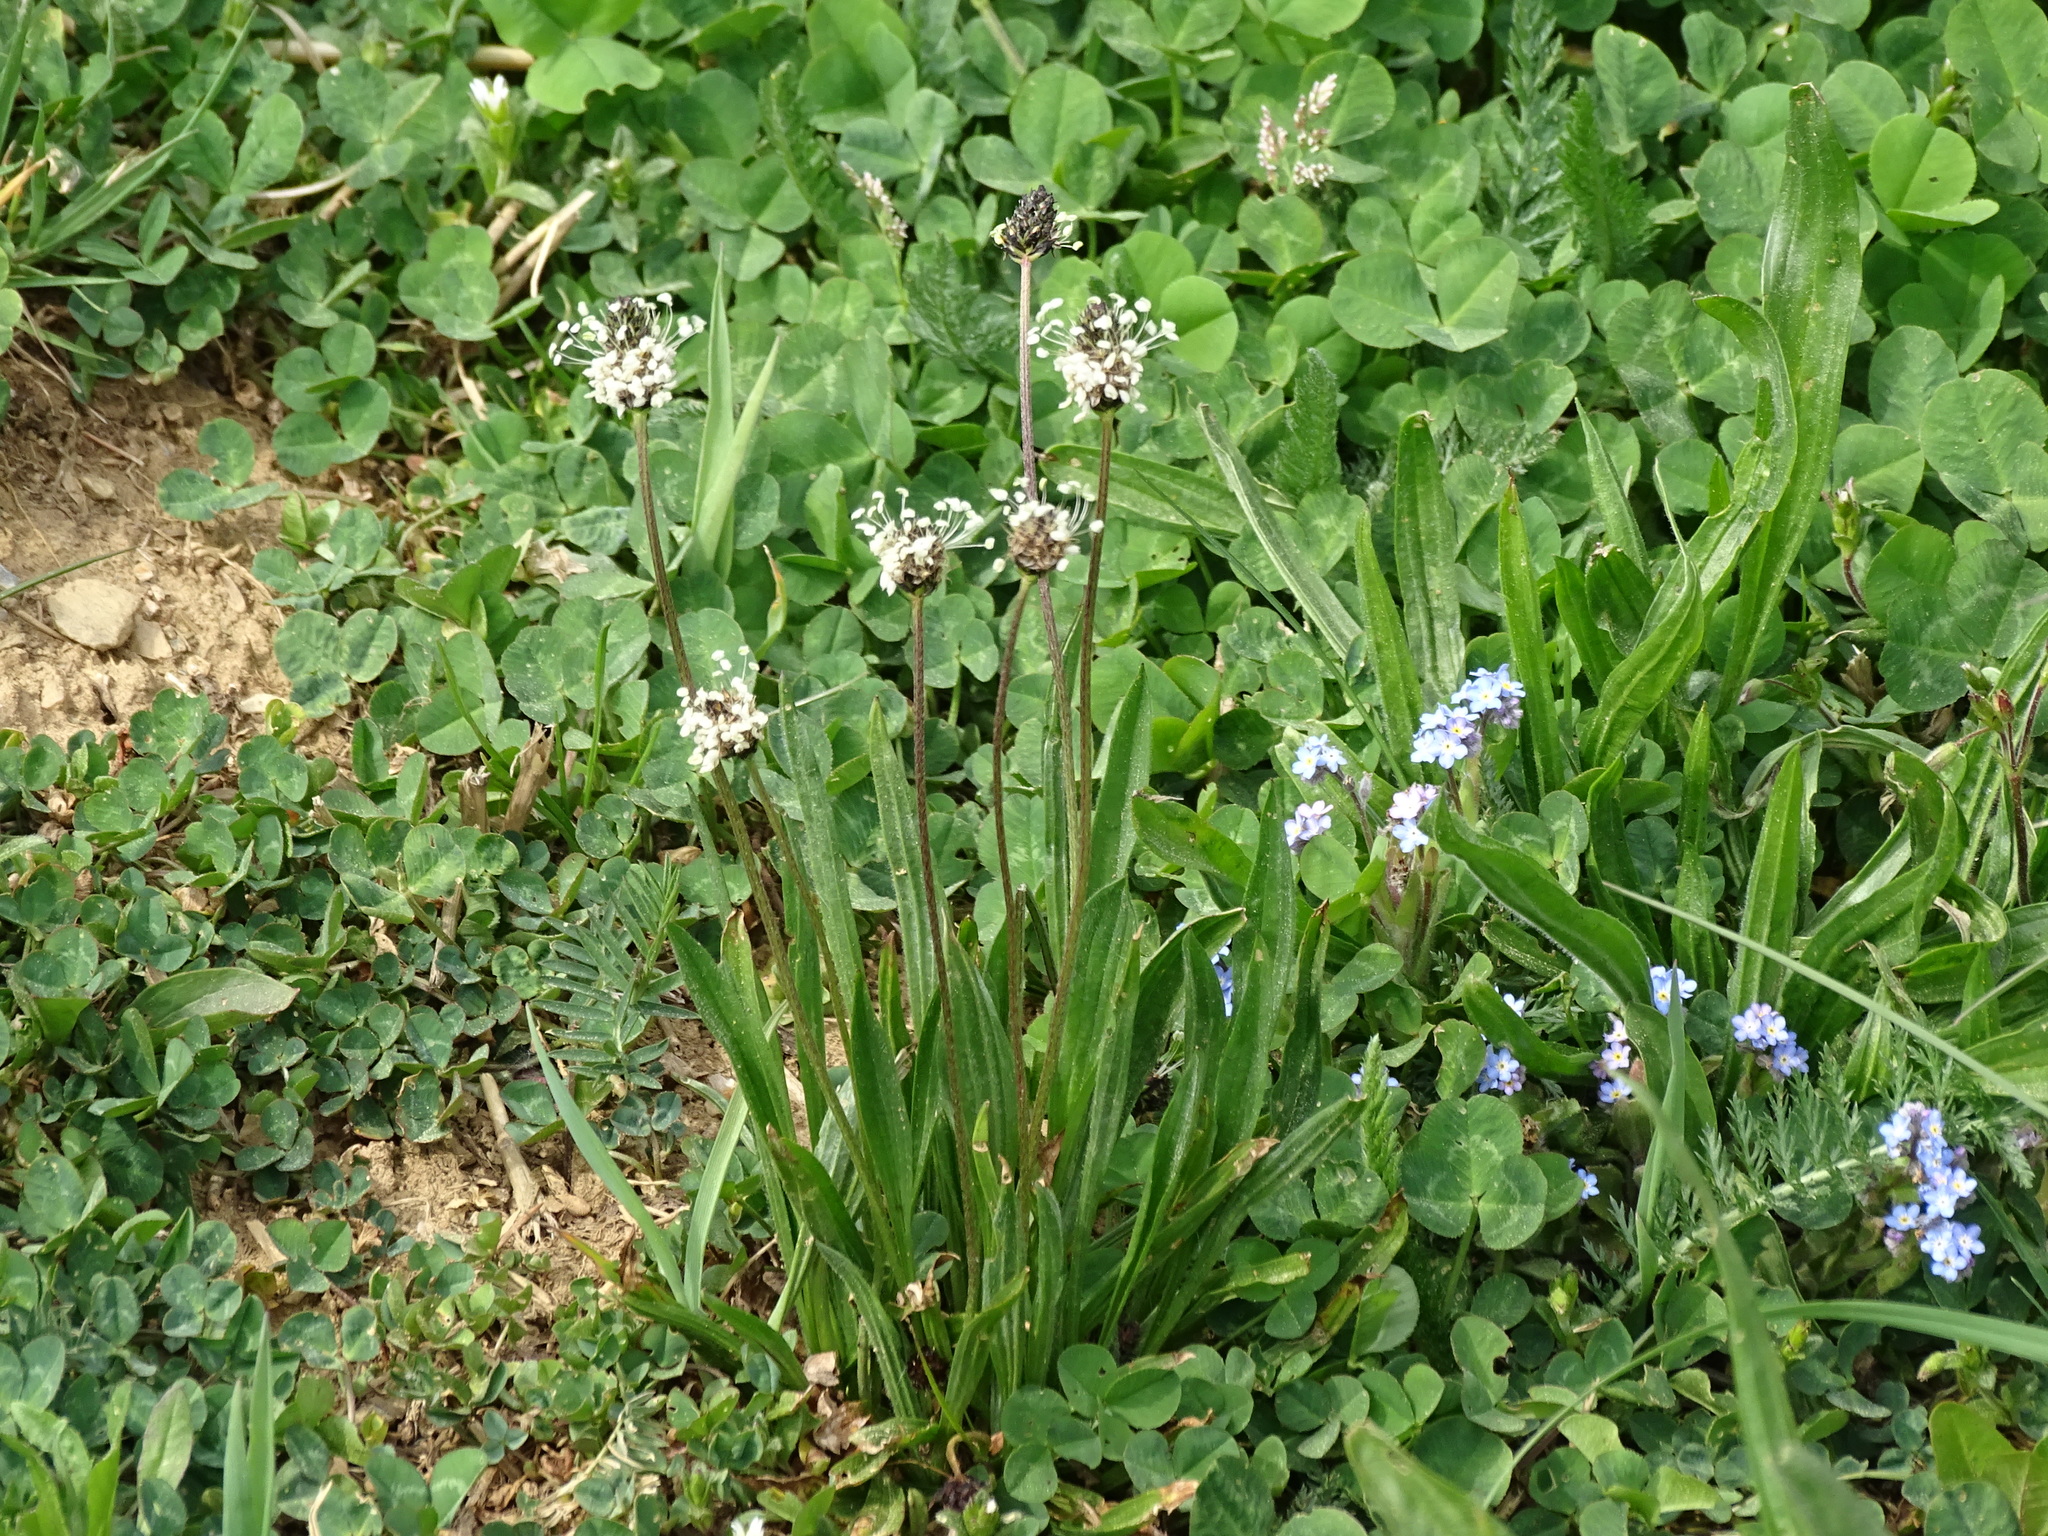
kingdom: Plantae
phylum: Tracheophyta
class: Magnoliopsida
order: Lamiales
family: Plantaginaceae
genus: Plantago
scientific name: Plantago lanceolata
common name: Ribwort plantain
